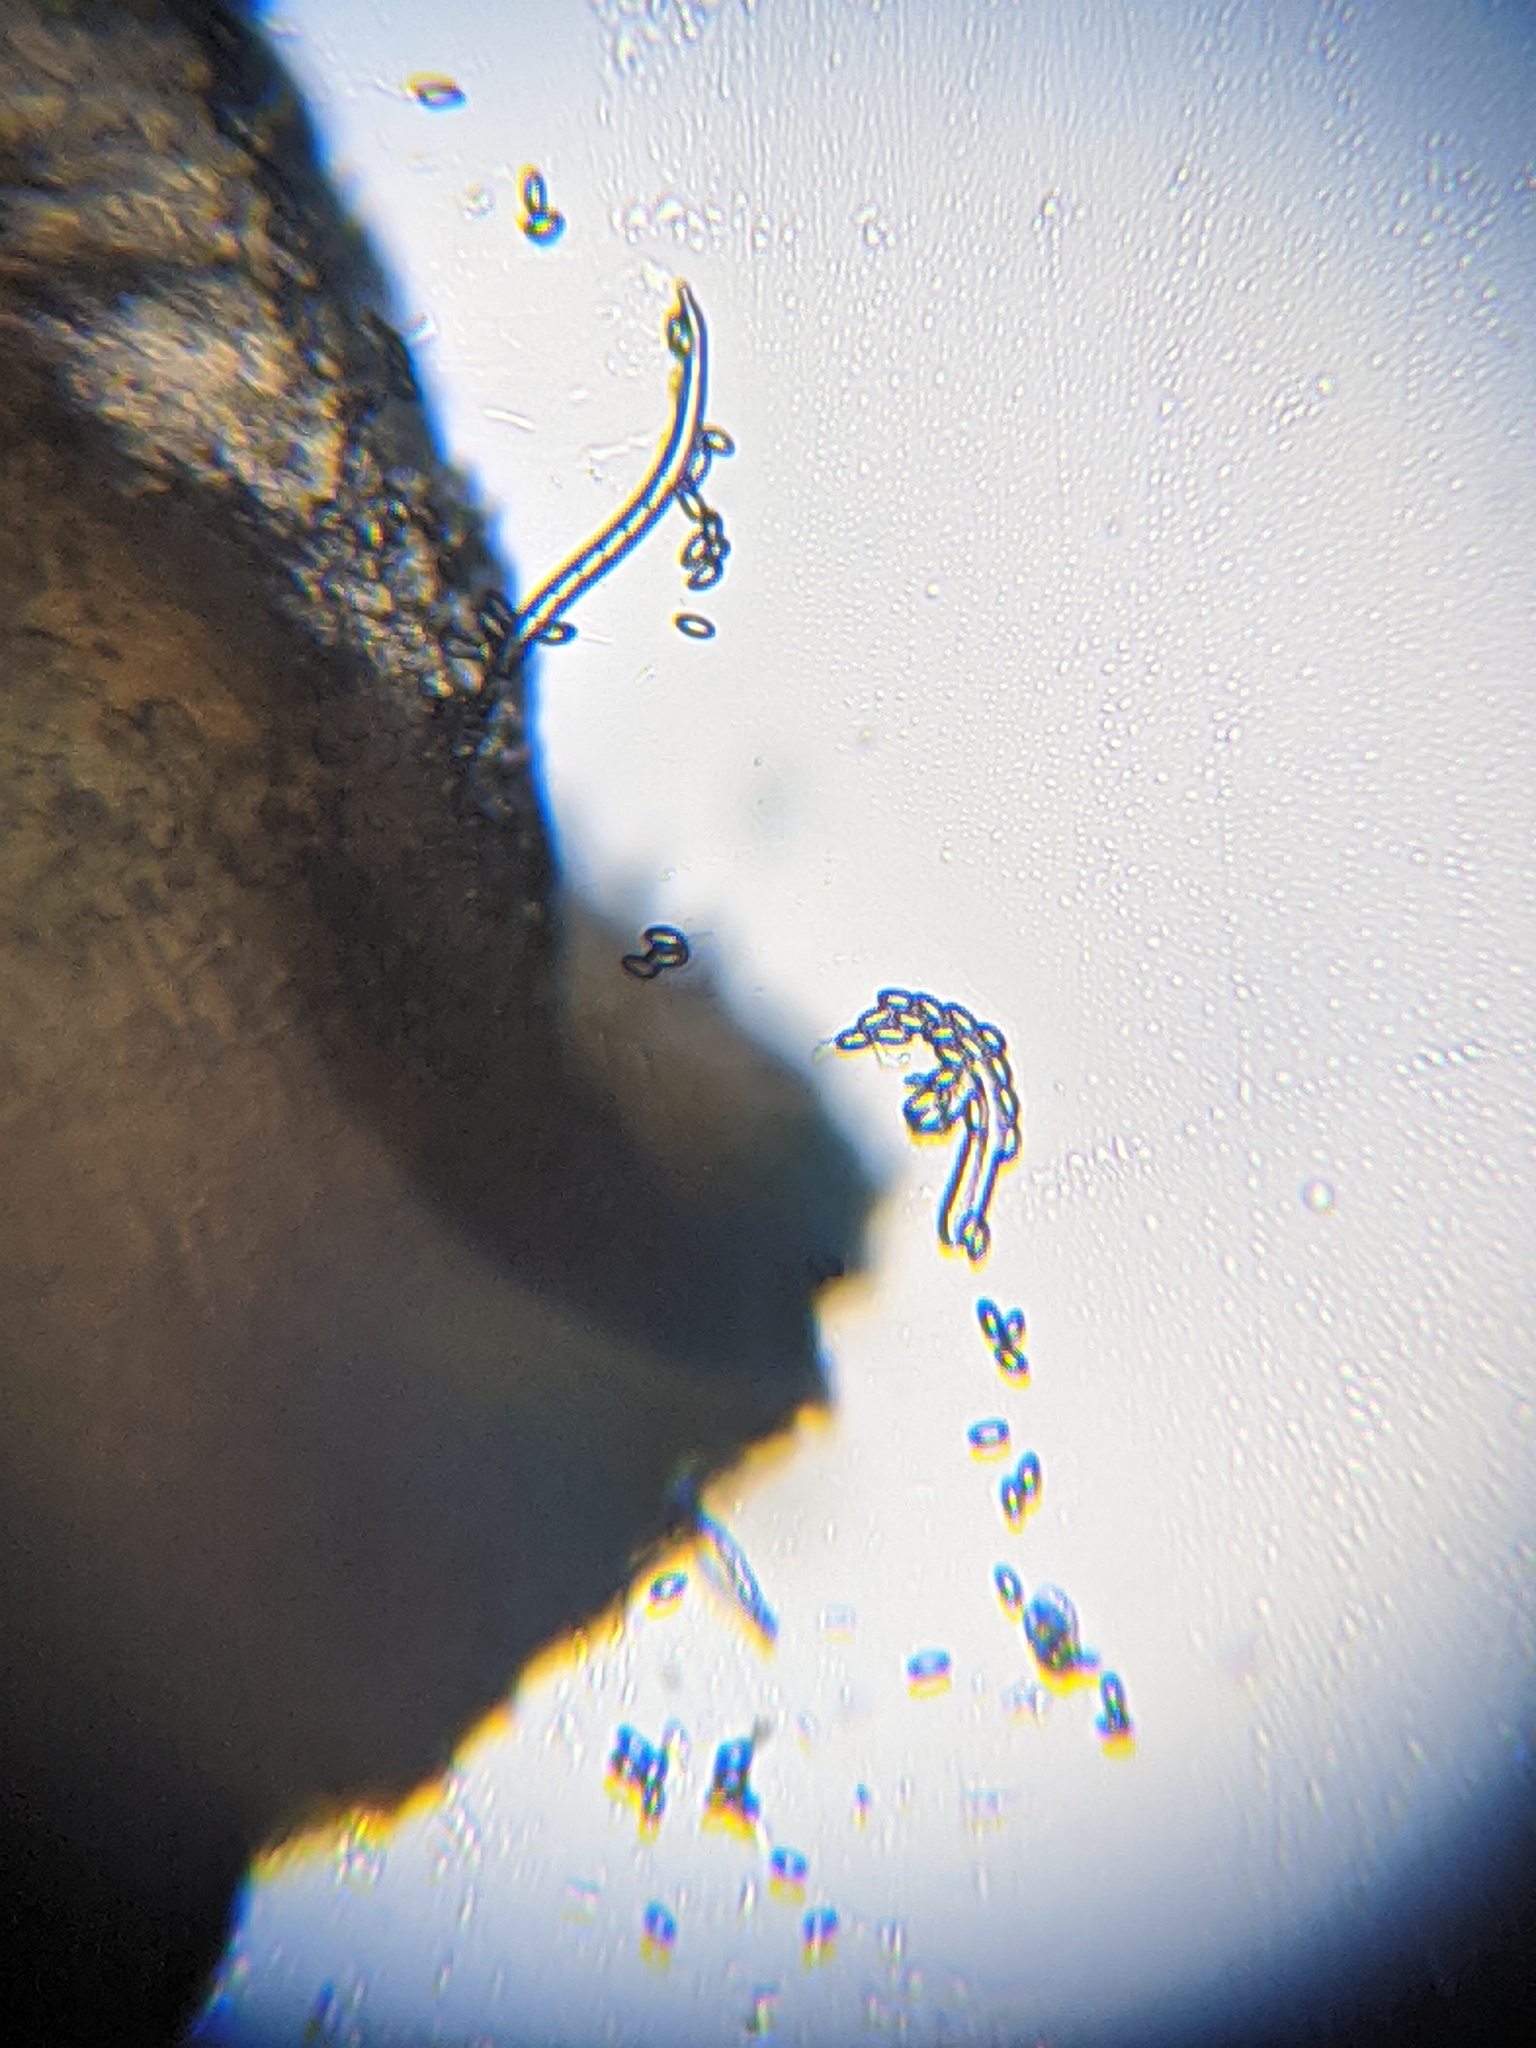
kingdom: Fungi
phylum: Ascomycota
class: Leotiomycetes
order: Helotiales
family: Sclerotiniaceae
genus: Dumontinia
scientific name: Dumontinia tuberosa
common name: Anemone cup
